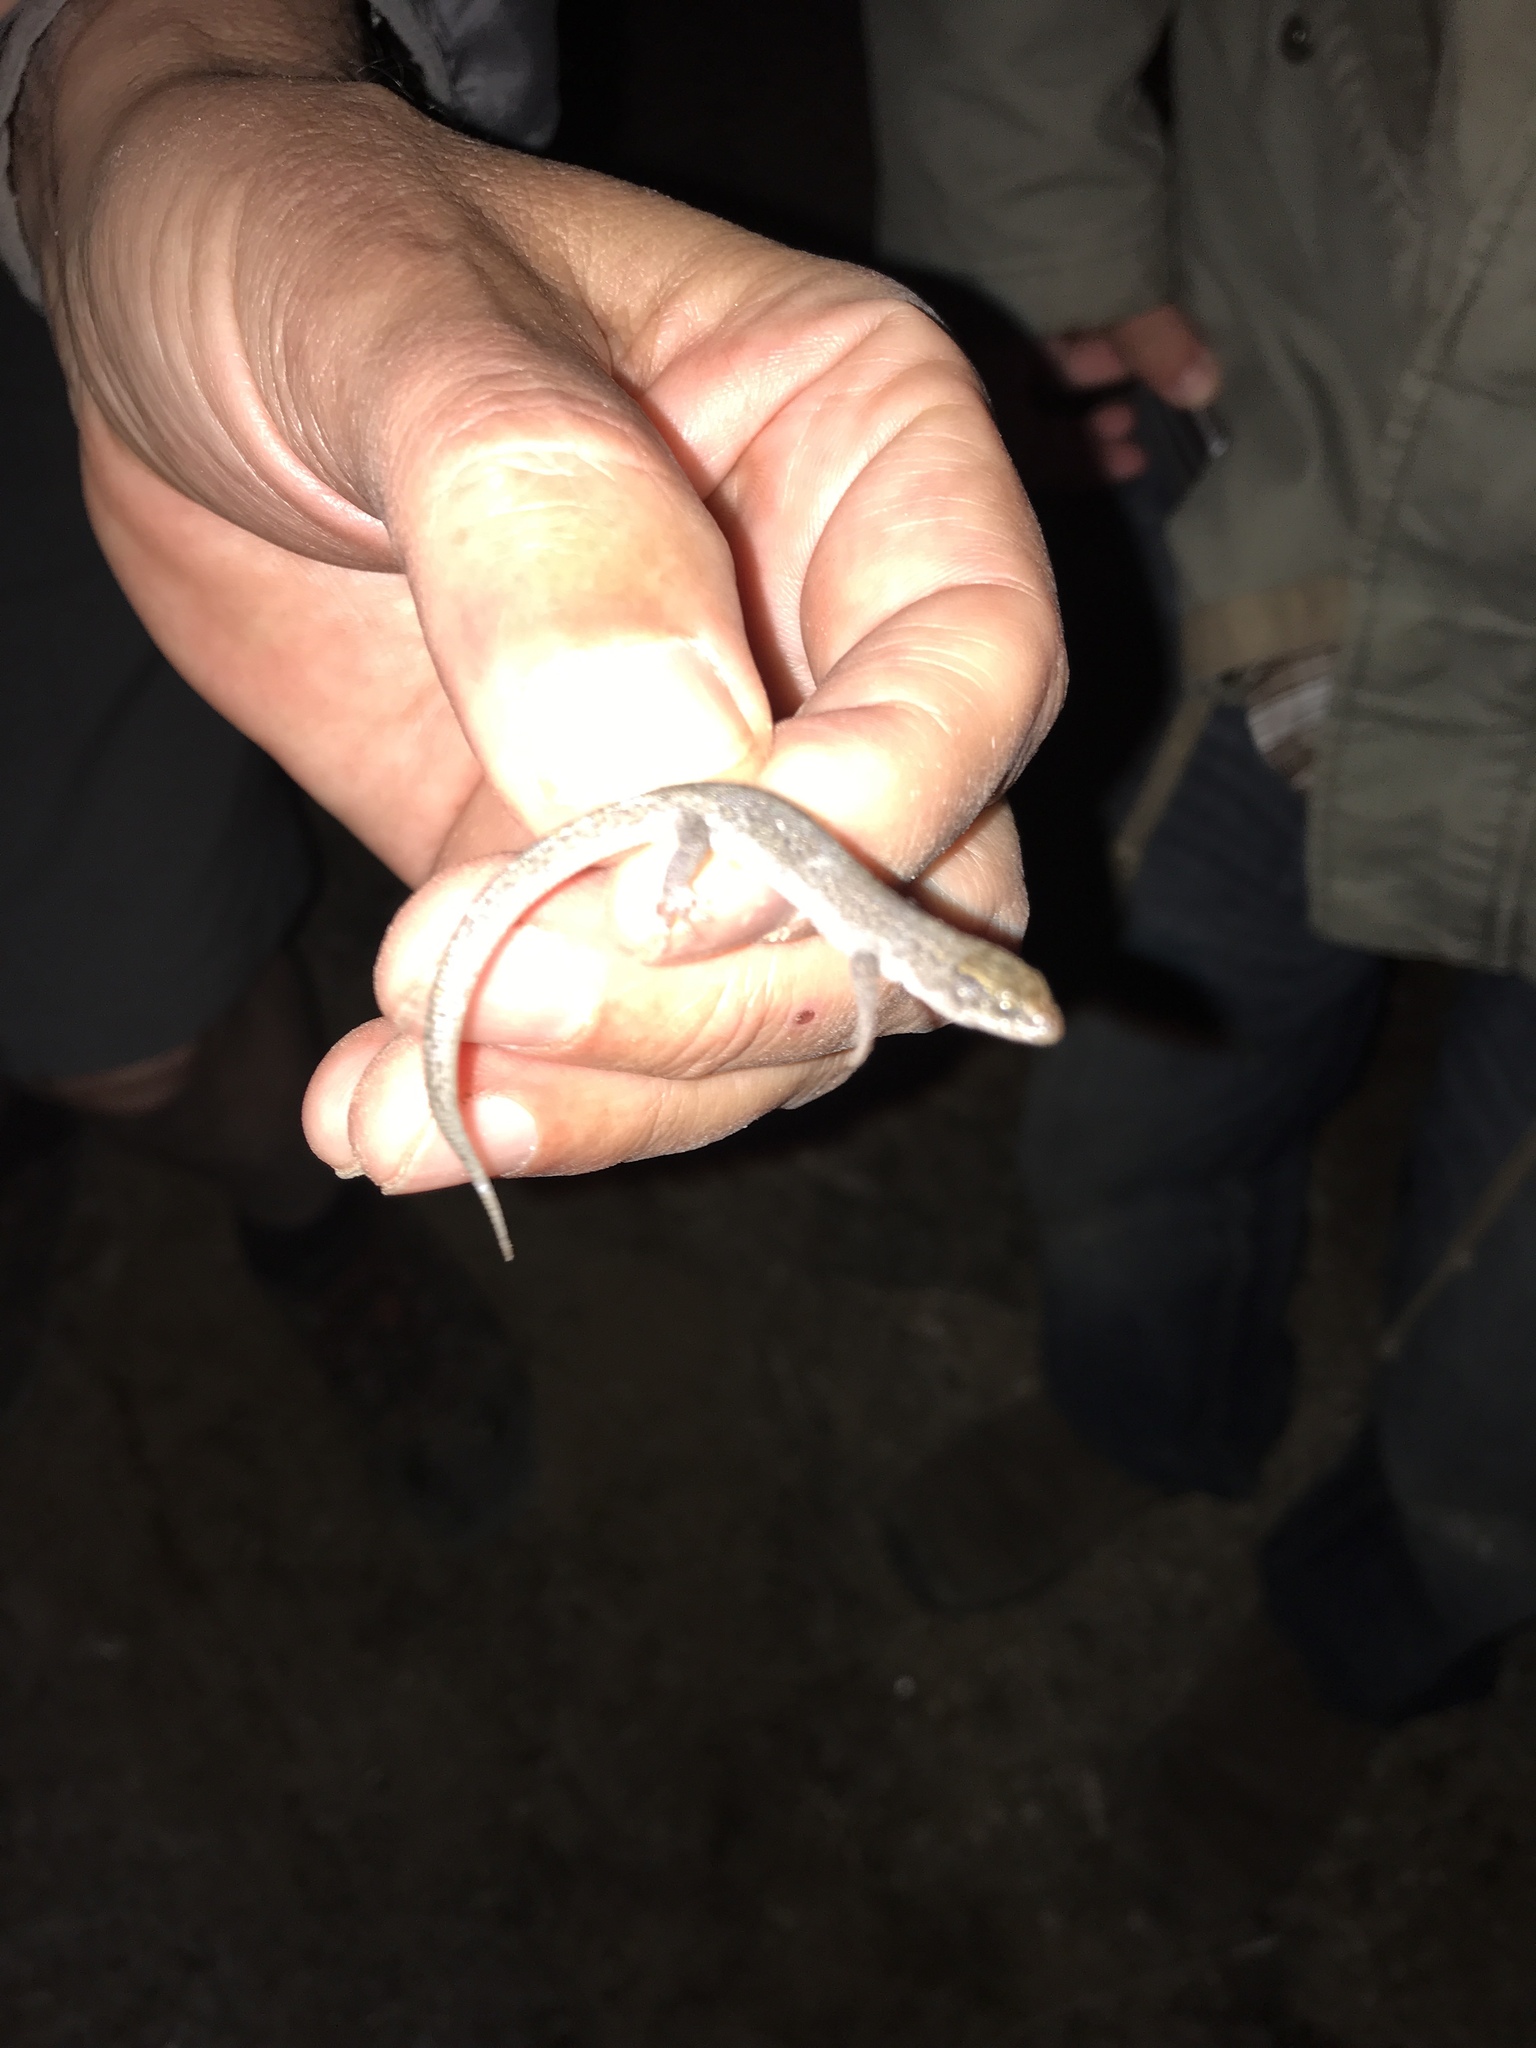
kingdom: Animalia
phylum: Chordata
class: Squamata
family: Xantusiidae
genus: Xantusia
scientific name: Xantusia vigilis
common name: Desert night lizard
